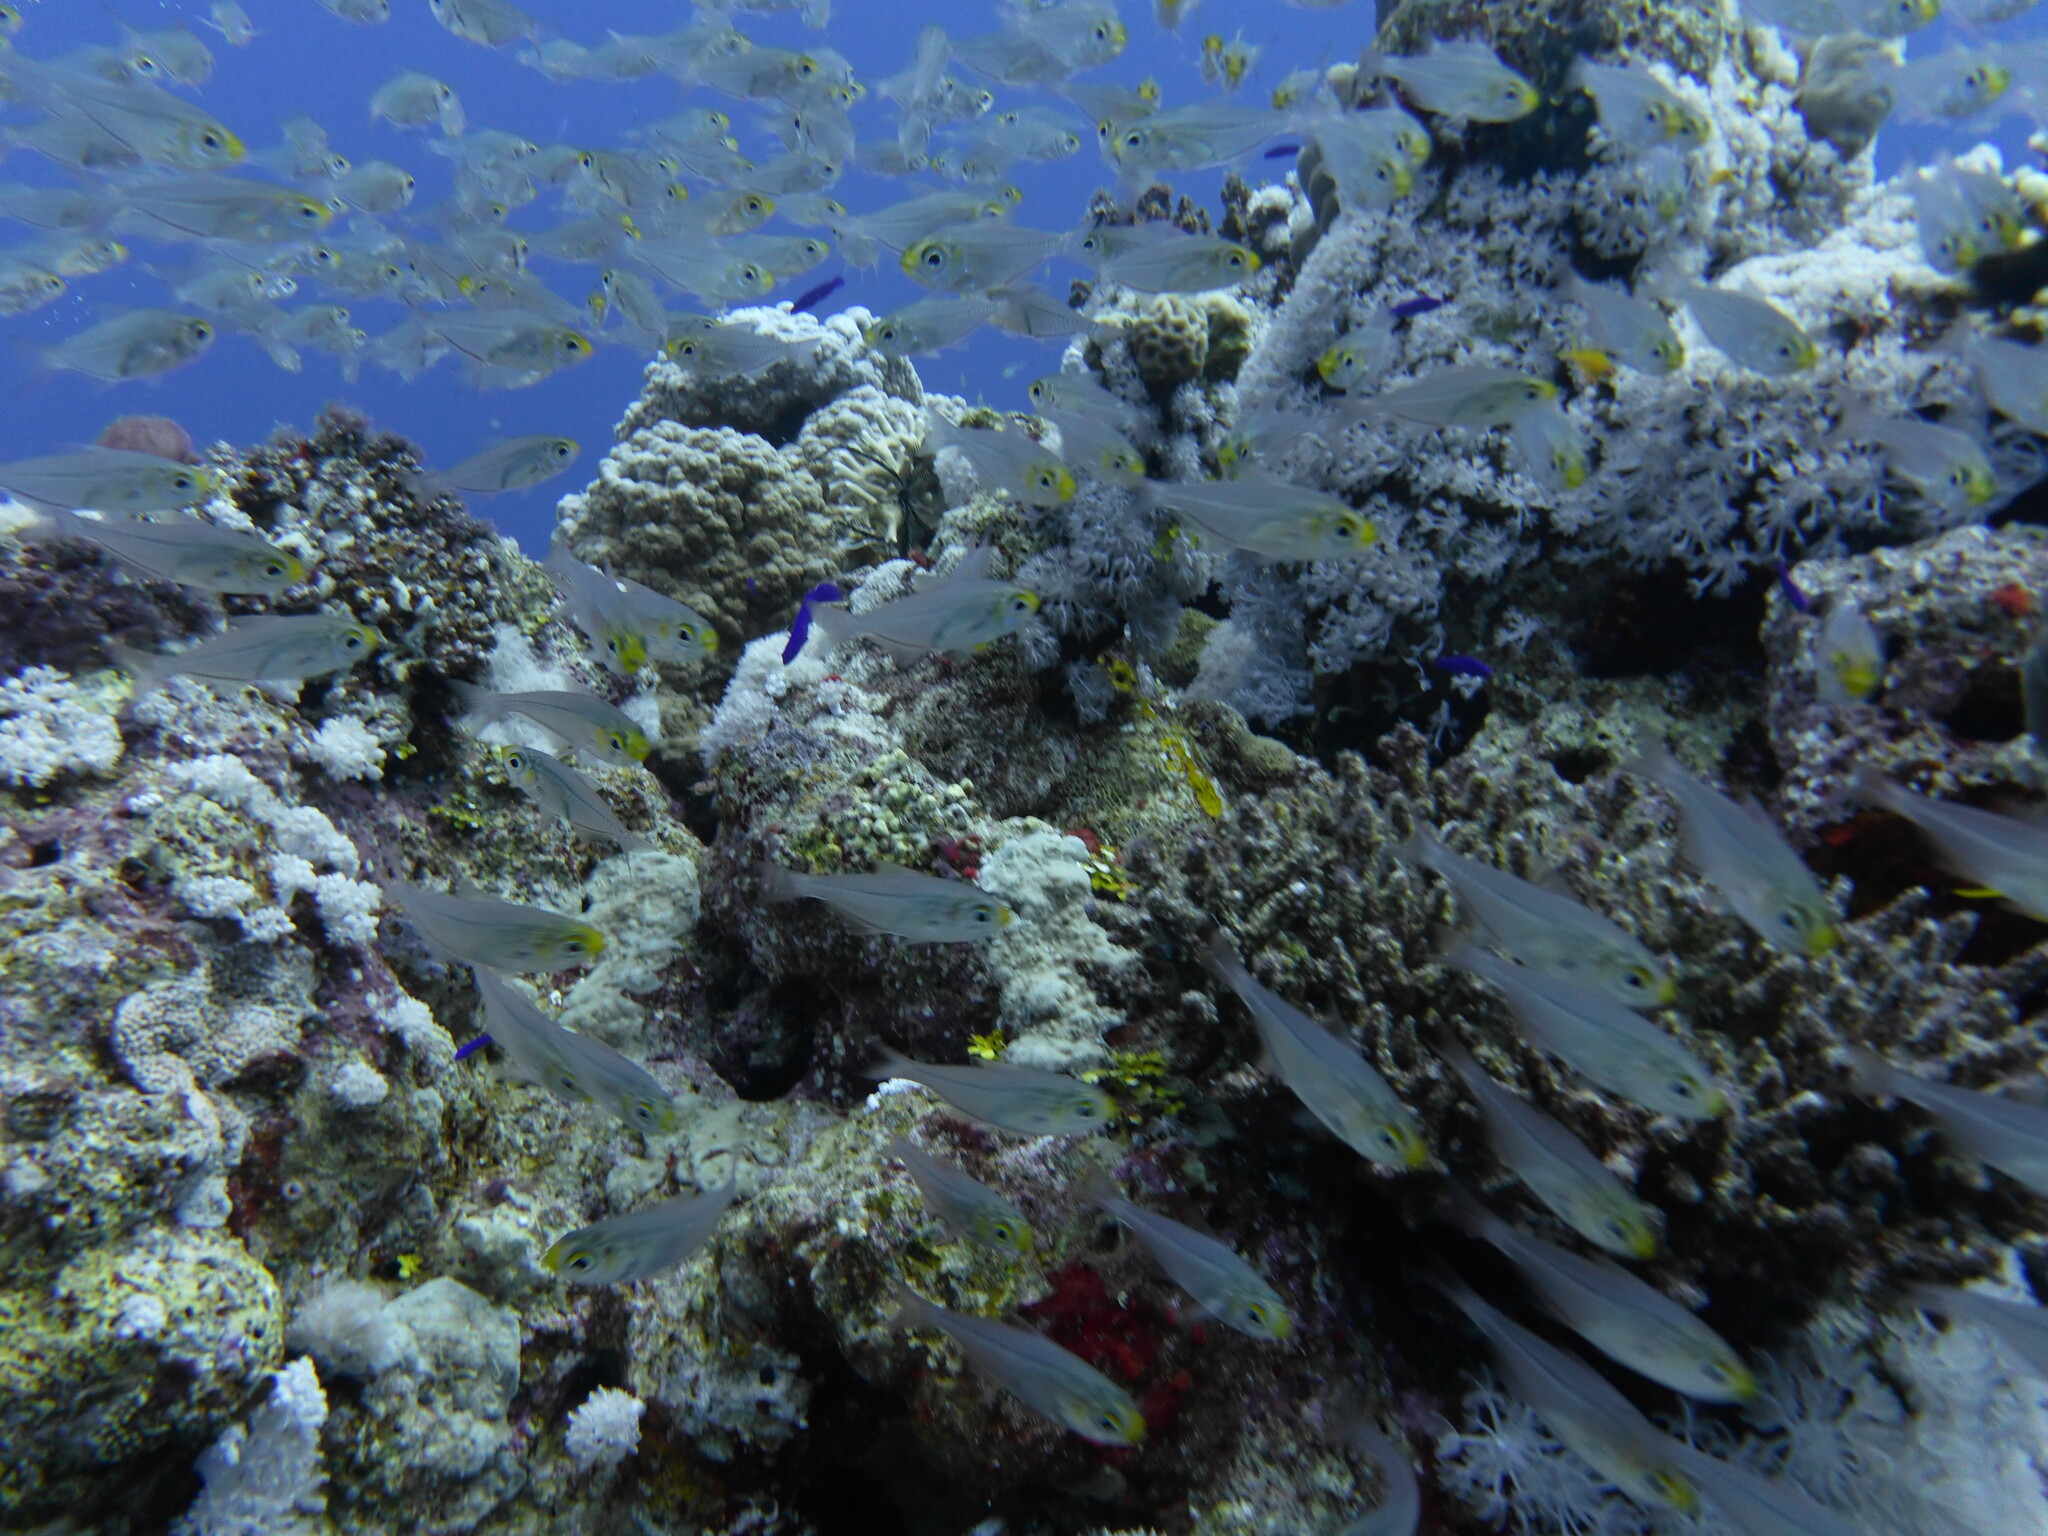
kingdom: Animalia
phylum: Chordata
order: Perciformes
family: Pempheridae
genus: Parapriacanthus
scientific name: Parapriacanthus guentheri
